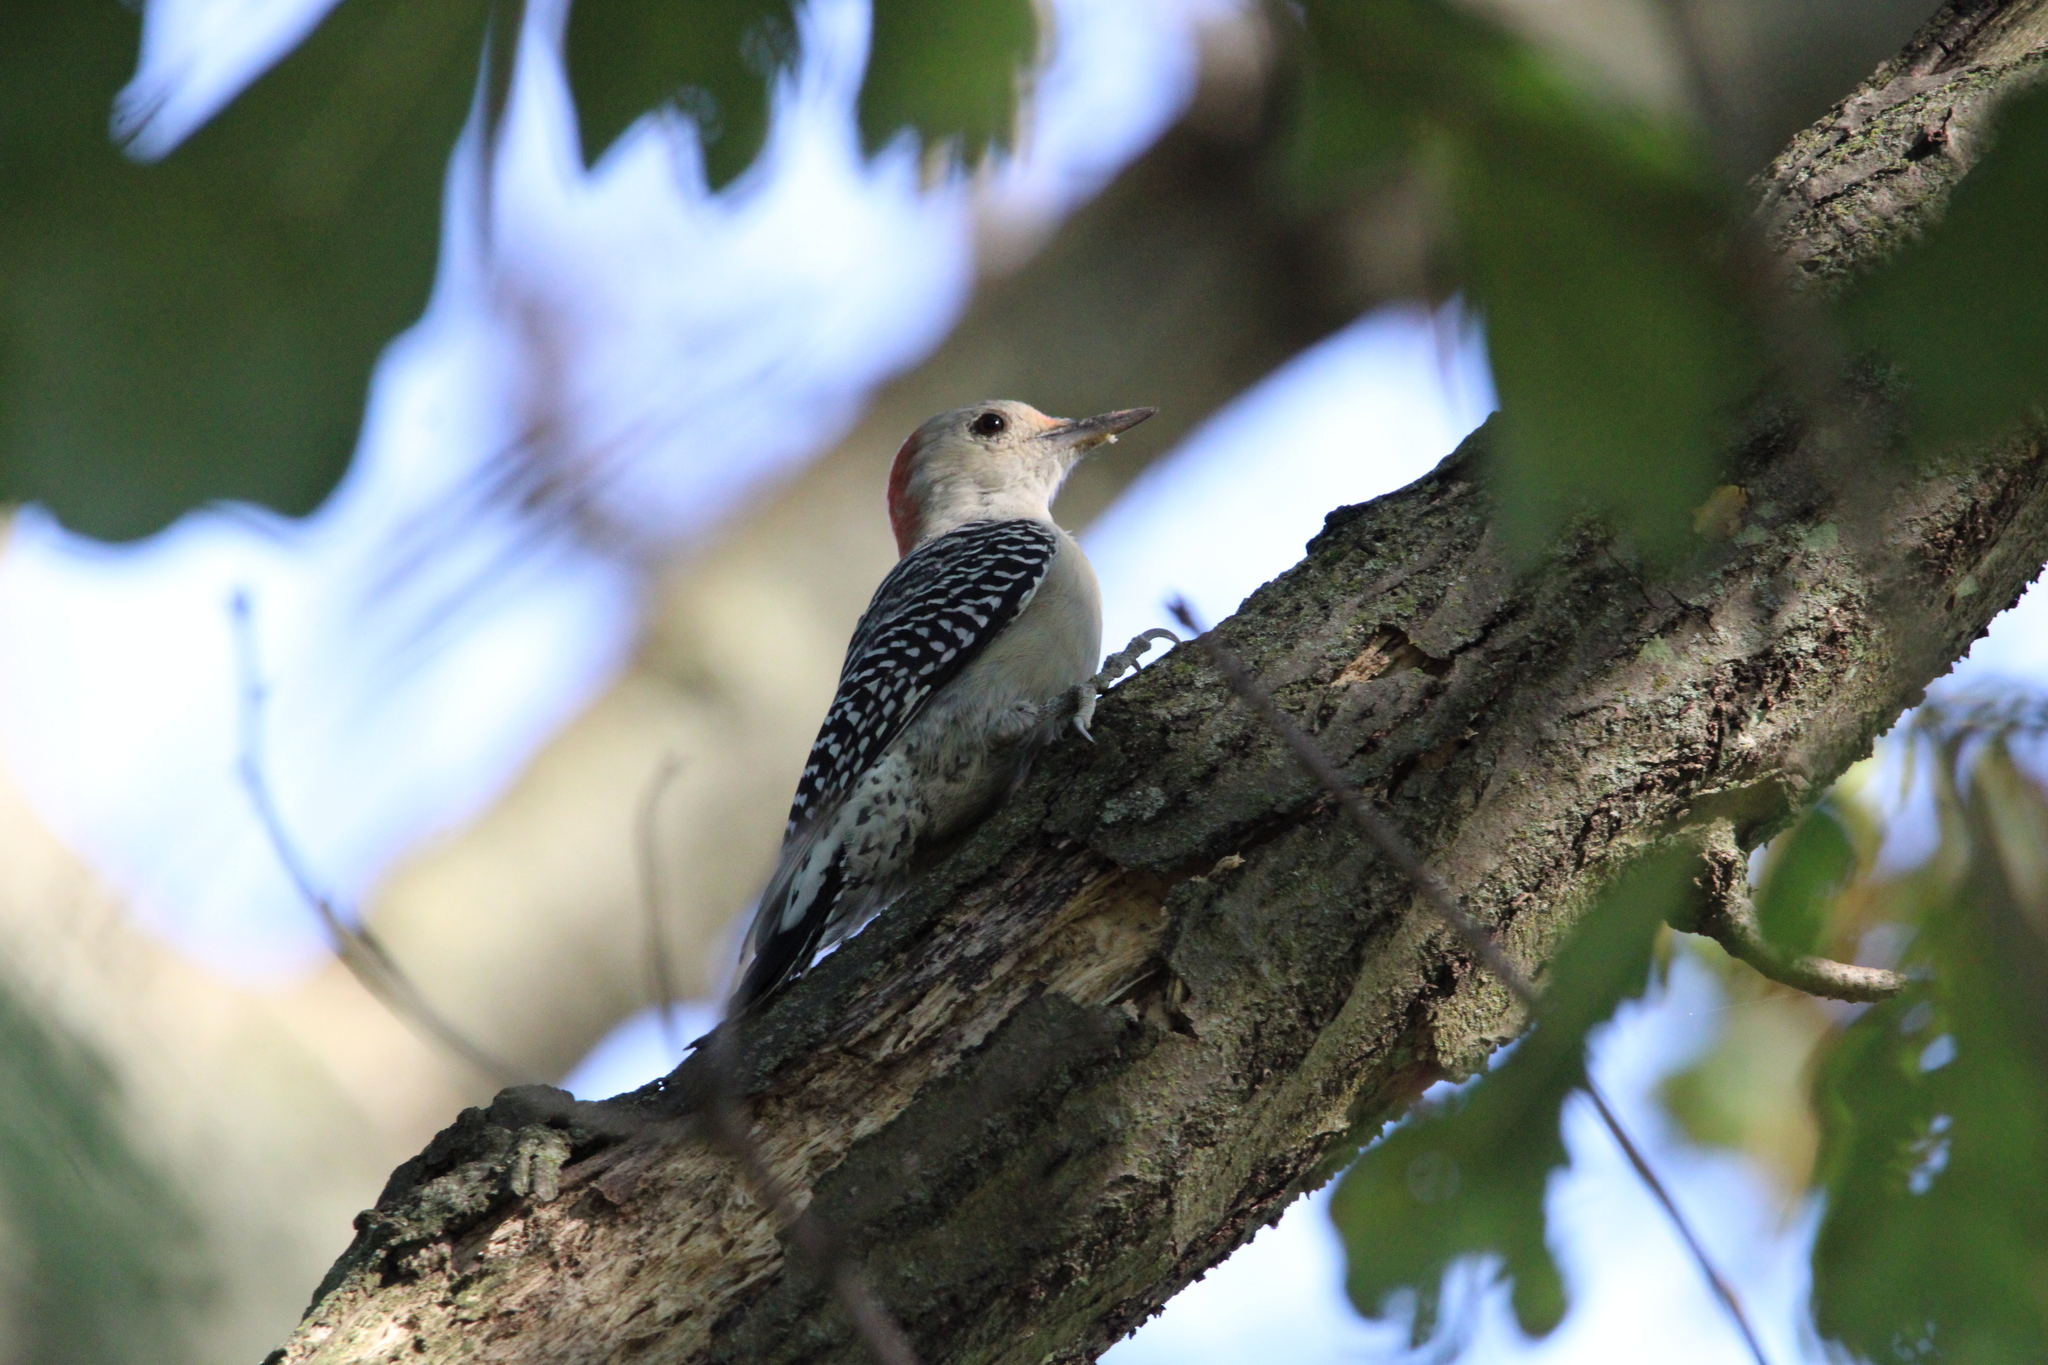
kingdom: Animalia
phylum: Chordata
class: Aves
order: Piciformes
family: Picidae
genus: Melanerpes
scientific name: Melanerpes carolinus
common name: Red-bellied woodpecker
